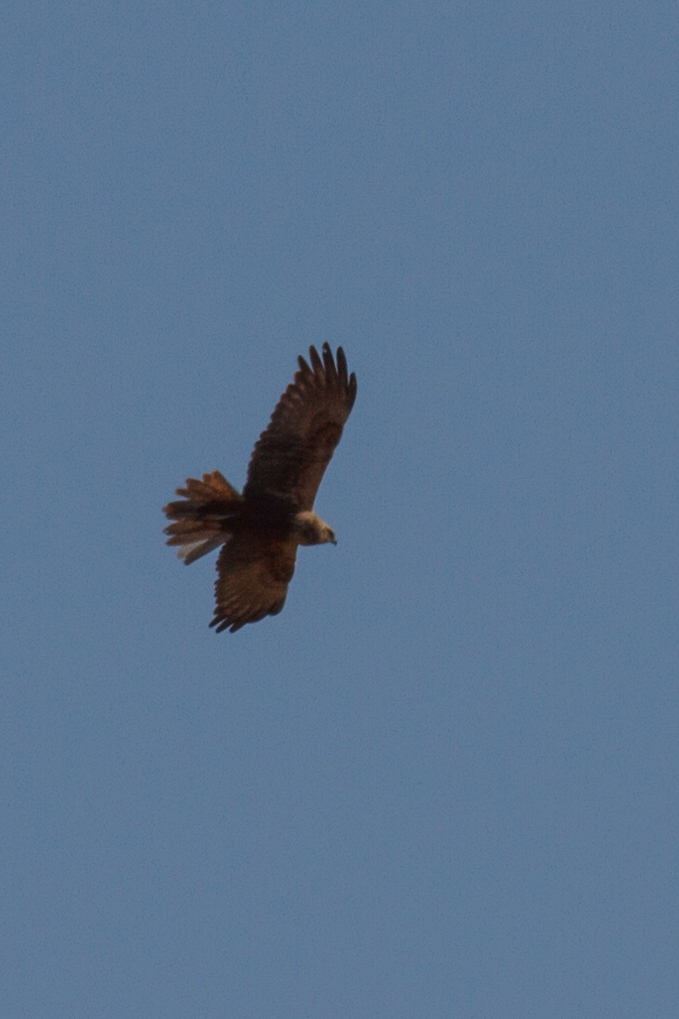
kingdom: Animalia
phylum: Chordata
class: Aves
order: Accipitriformes
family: Accipitridae
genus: Circus
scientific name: Circus aeruginosus
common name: Western marsh harrier
